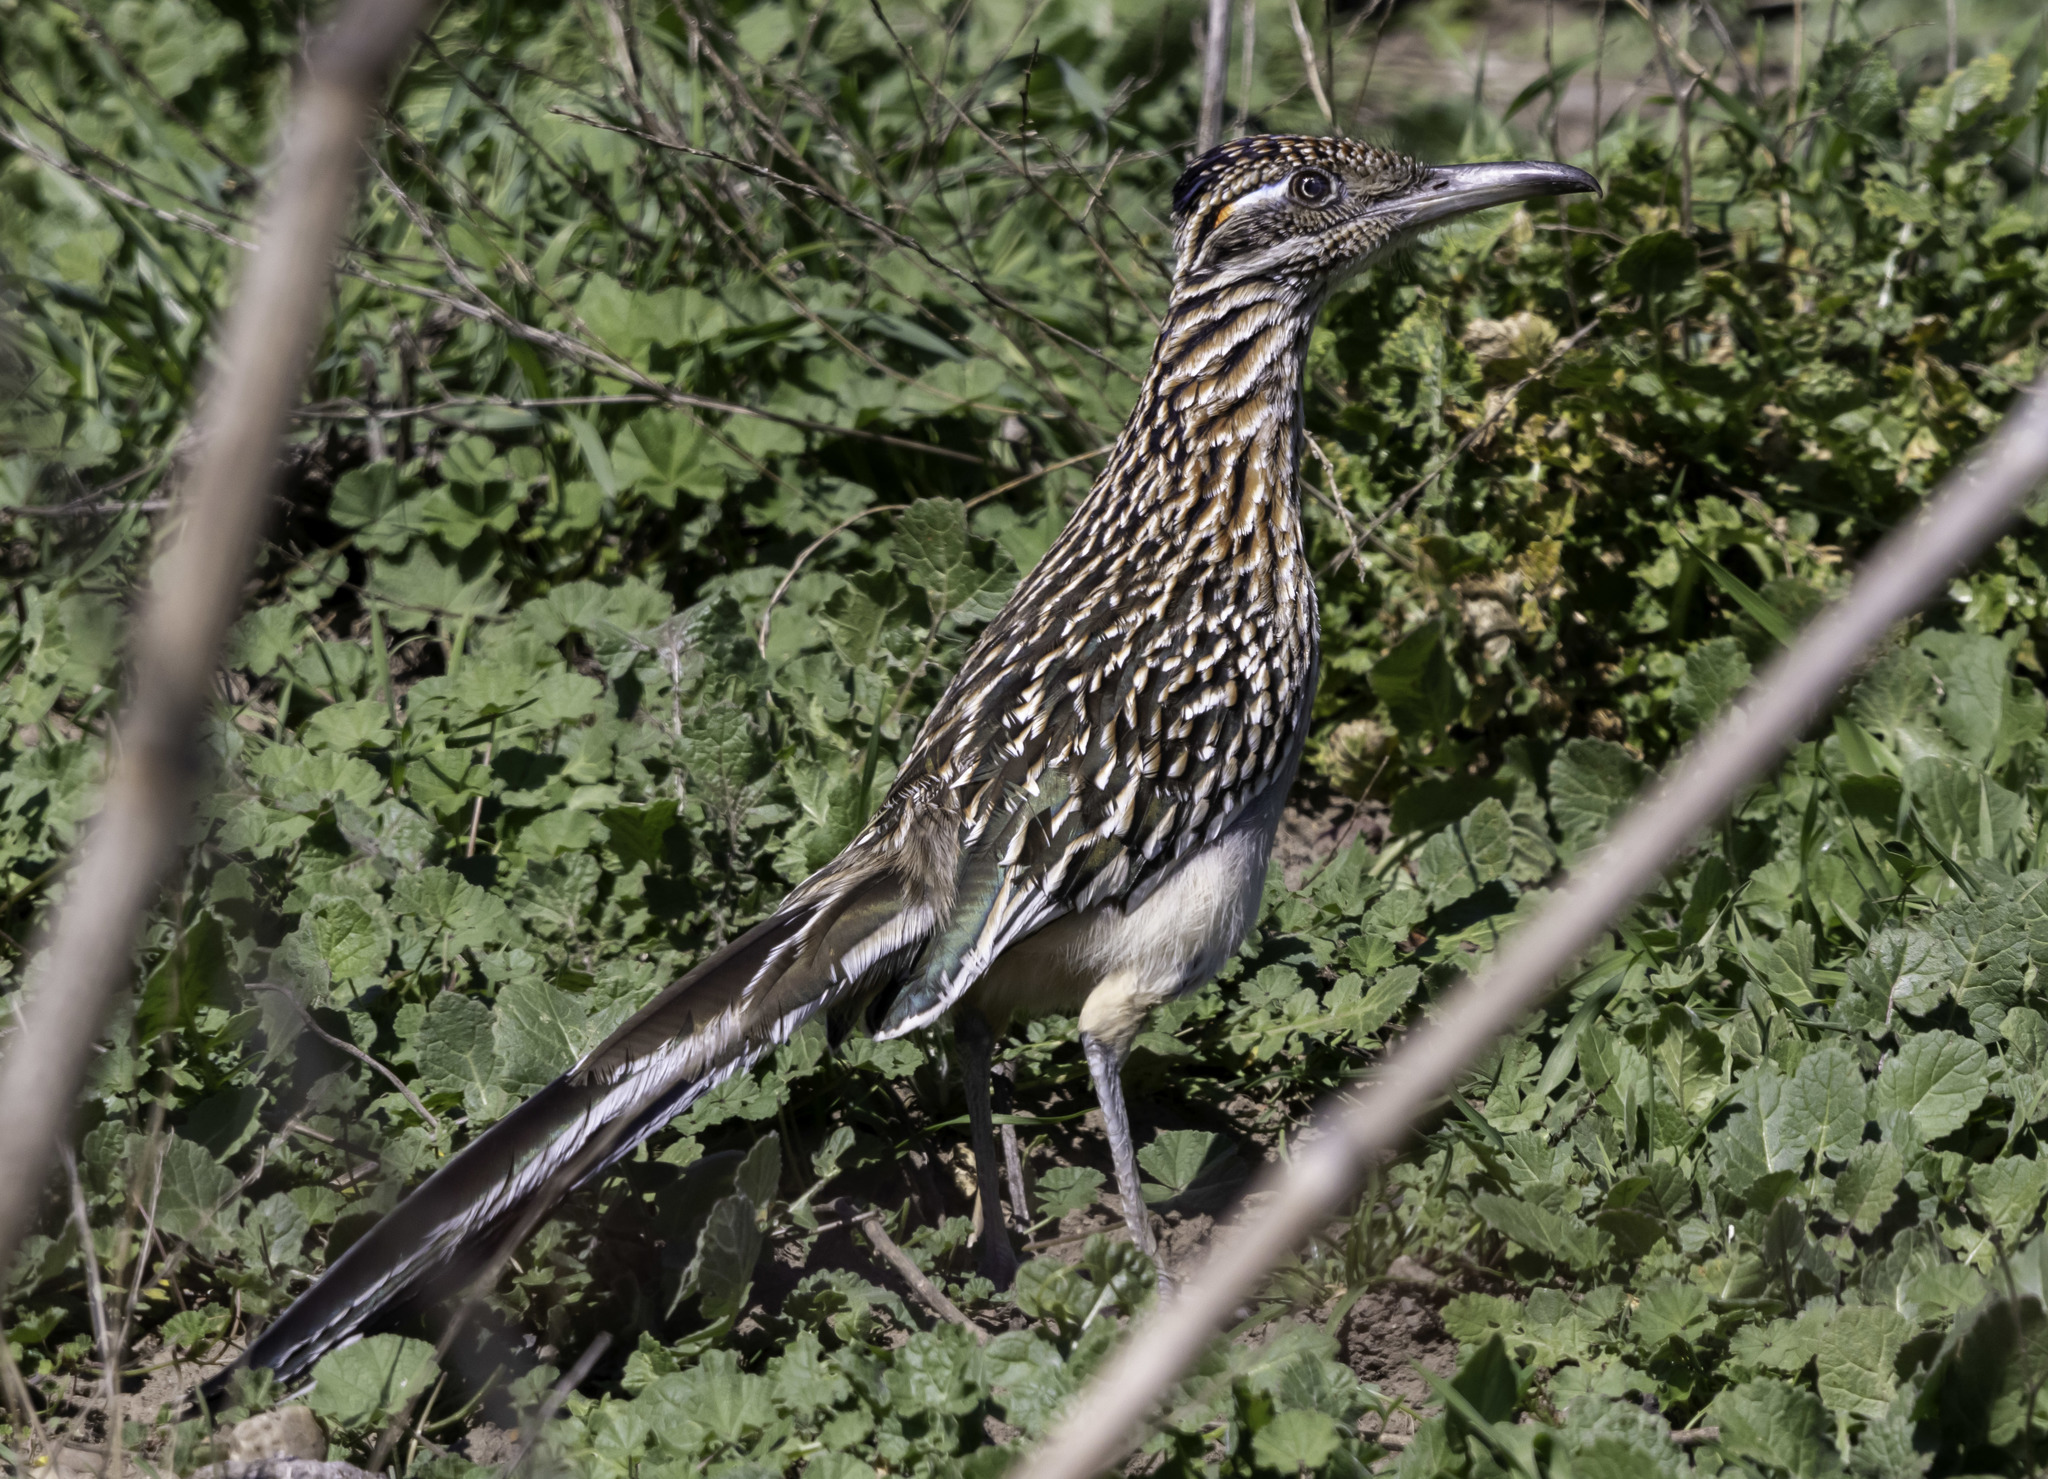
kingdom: Animalia
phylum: Chordata
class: Aves
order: Cuculiformes
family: Cuculidae
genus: Geococcyx
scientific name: Geococcyx californianus
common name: Greater roadrunner
